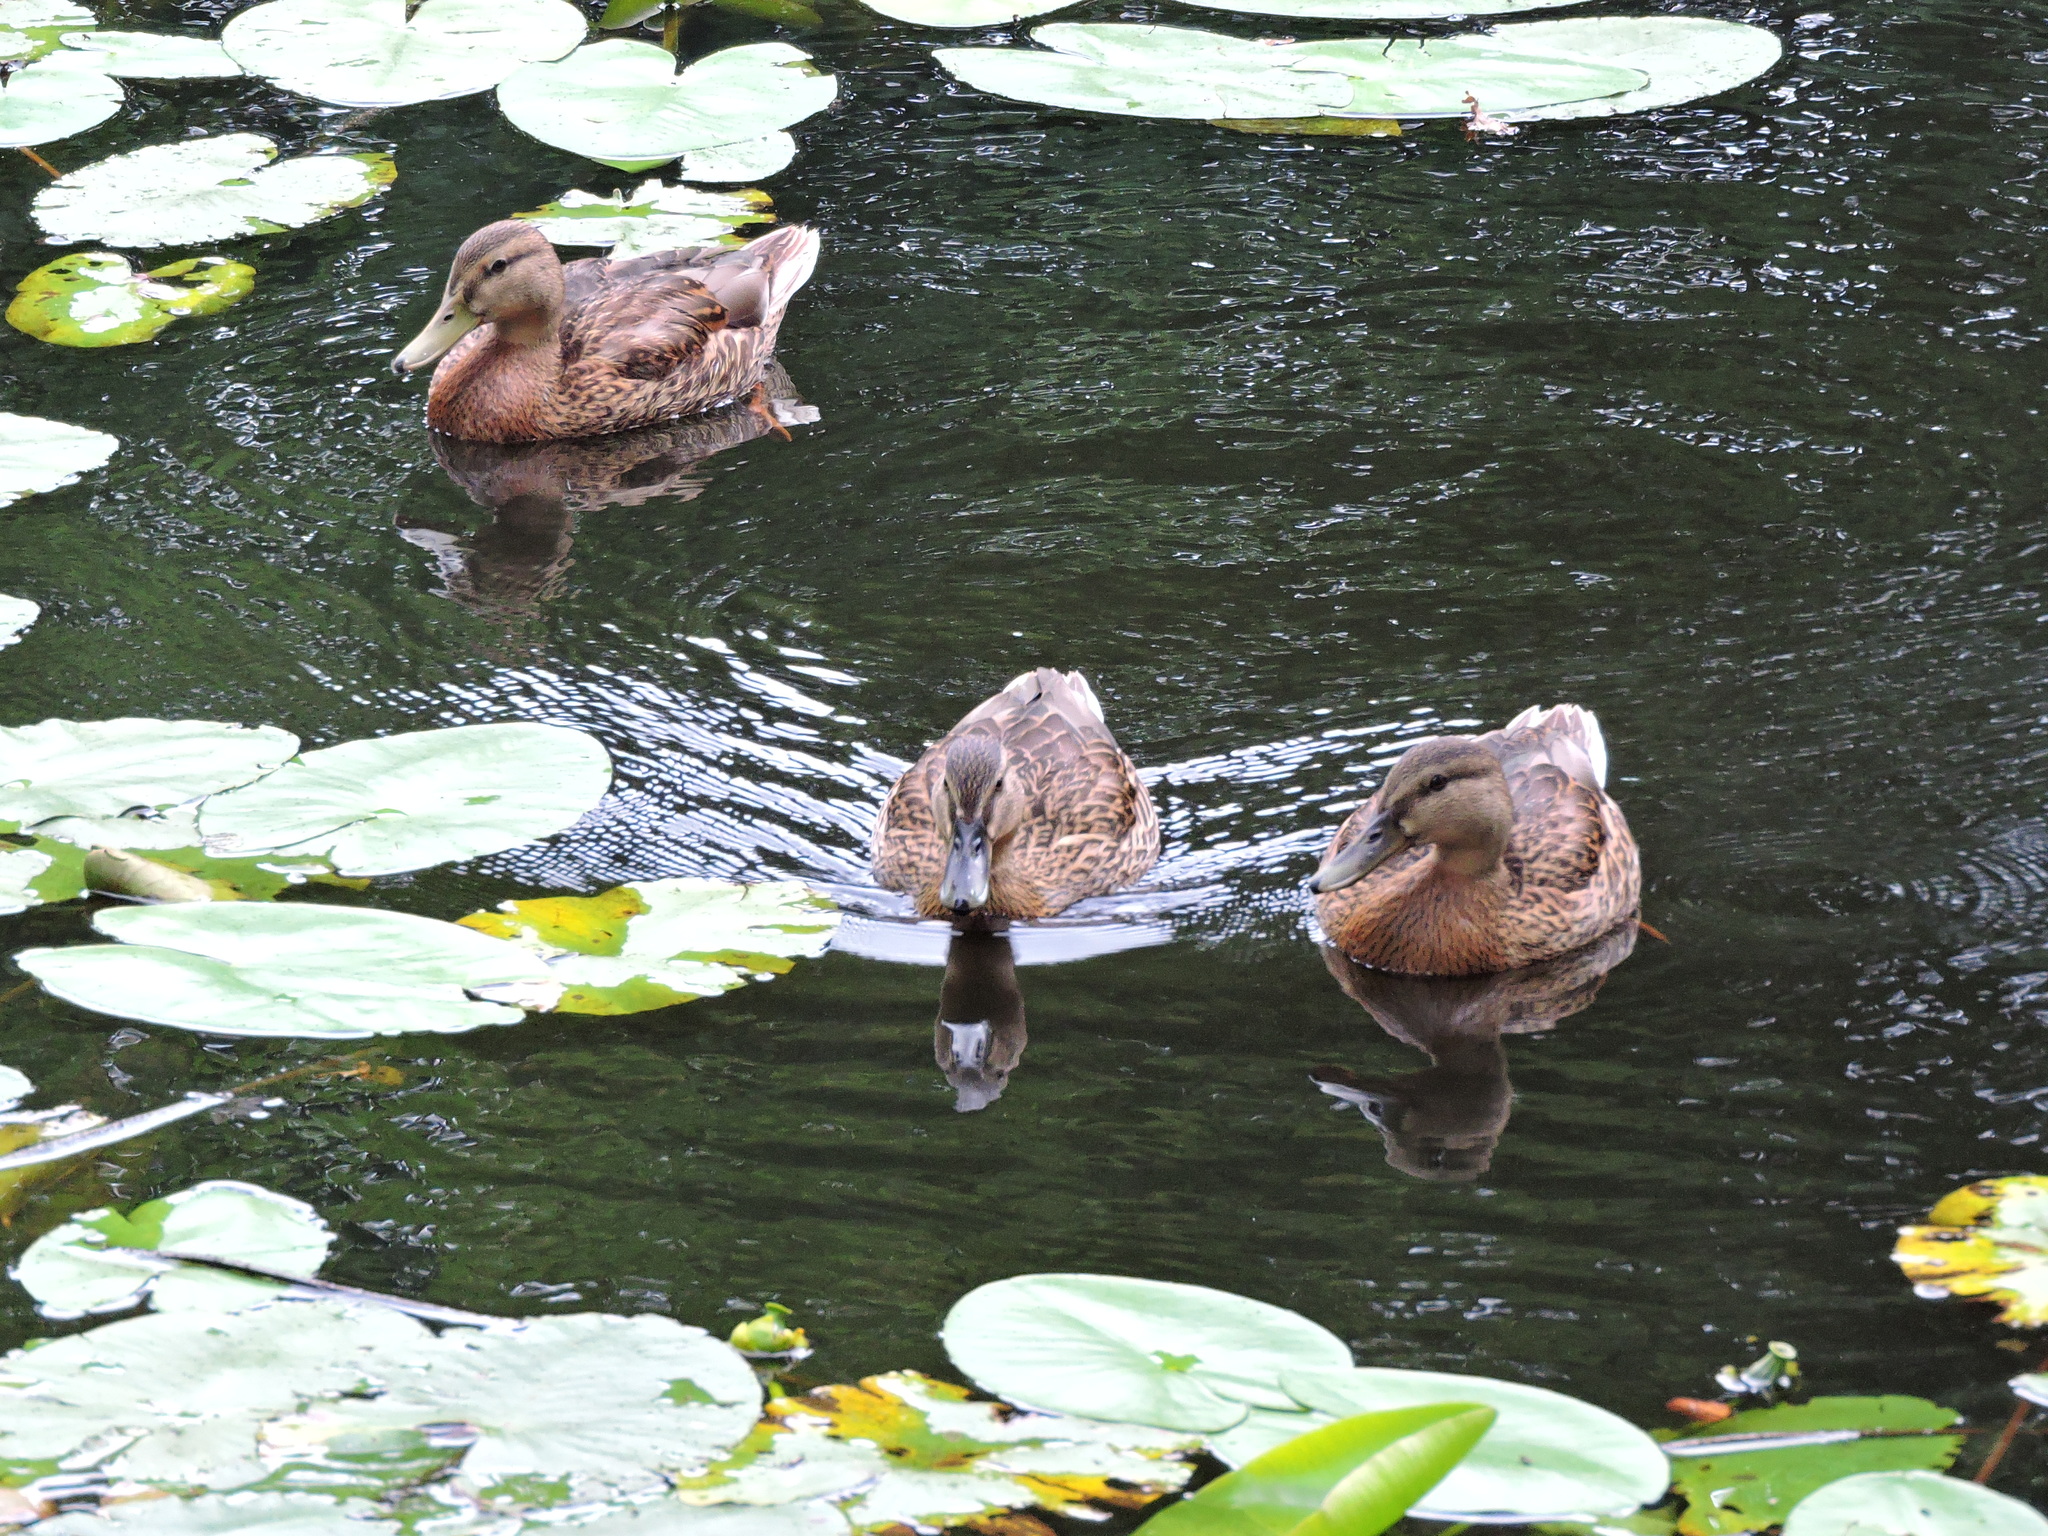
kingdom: Animalia
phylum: Chordata
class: Aves
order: Anseriformes
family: Anatidae
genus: Anas
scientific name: Anas platyrhynchos
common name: Mallard
